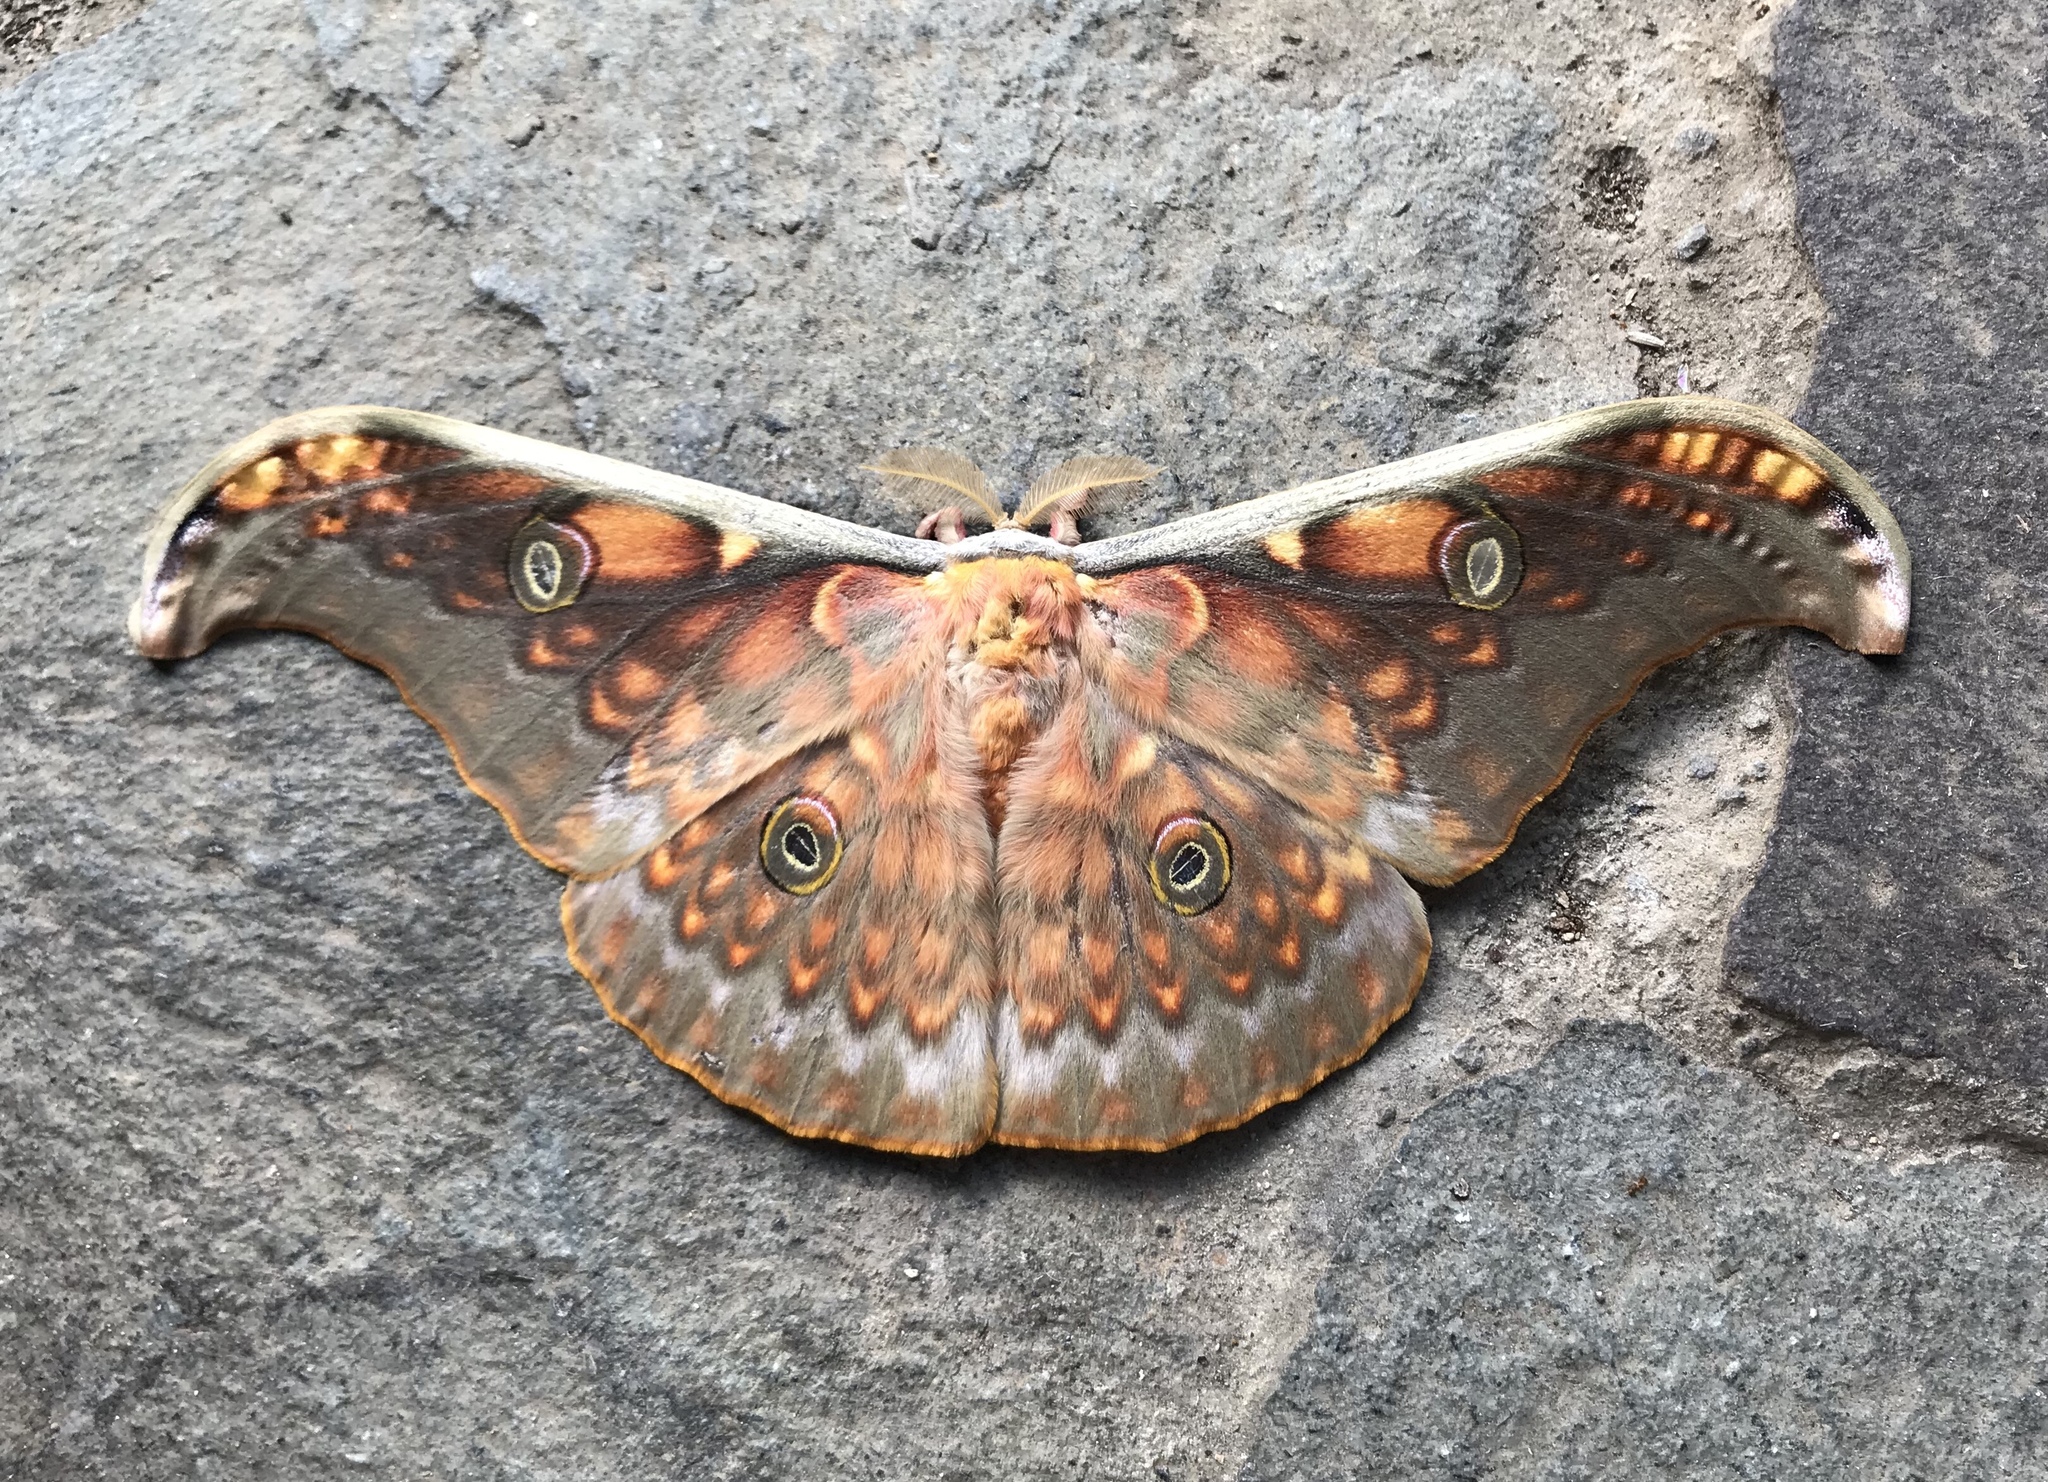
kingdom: Animalia
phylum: Arthropoda
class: Insecta
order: Lepidoptera
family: Saturniidae
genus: Antheraea
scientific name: Antheraea larissa
